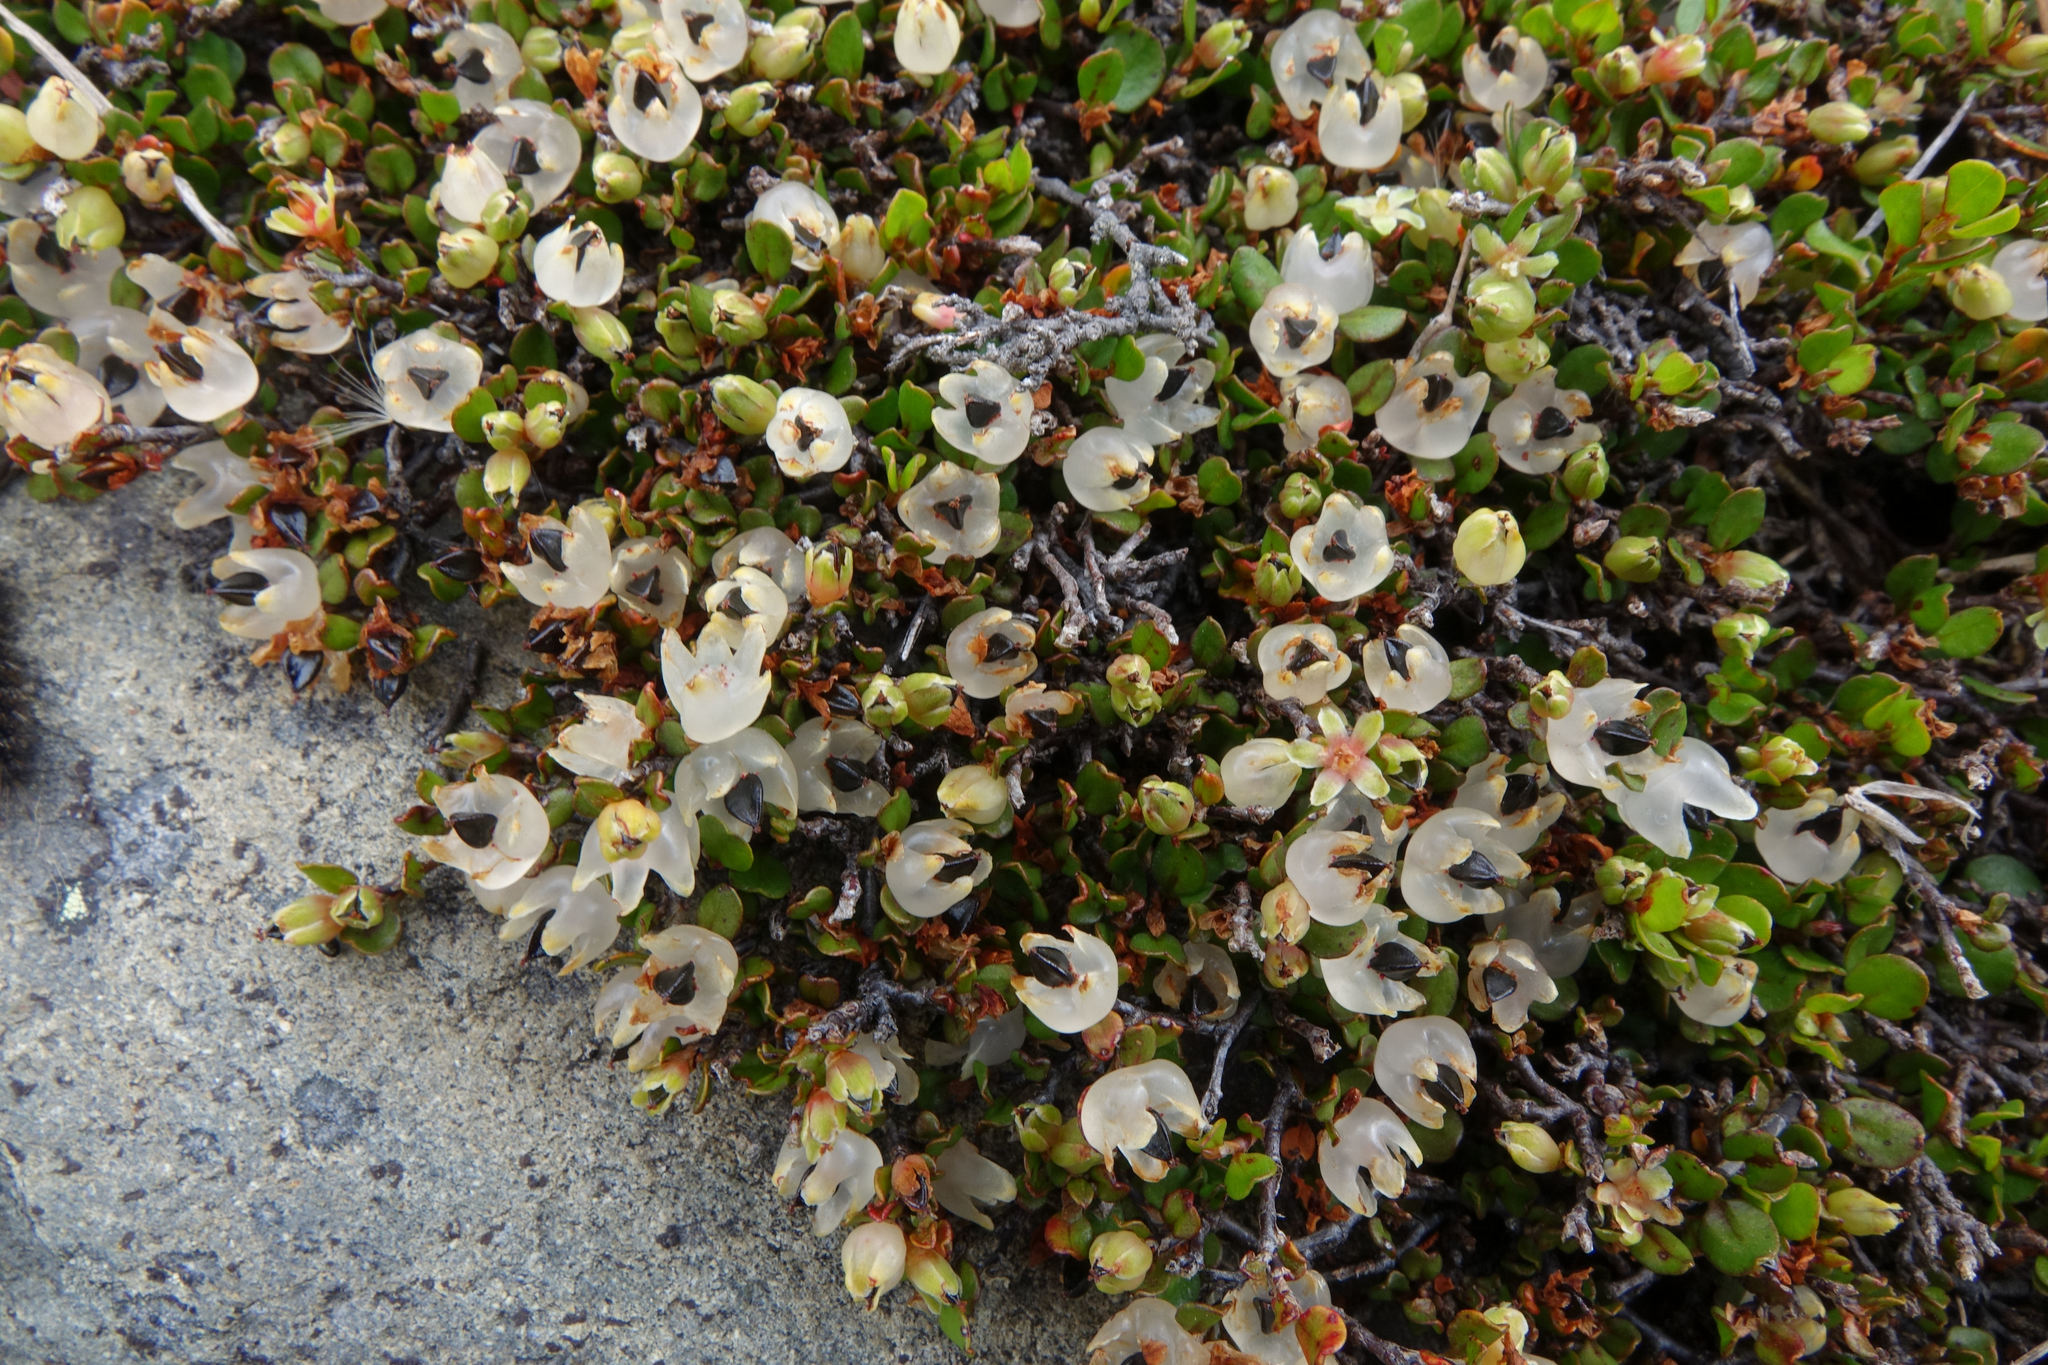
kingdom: Plantae
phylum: Tracheophyta
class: Magnoliopsida
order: Caryophyllales
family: Polygonaceae
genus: Muehlenbeckia
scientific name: Muehlenbeckia axillaris
